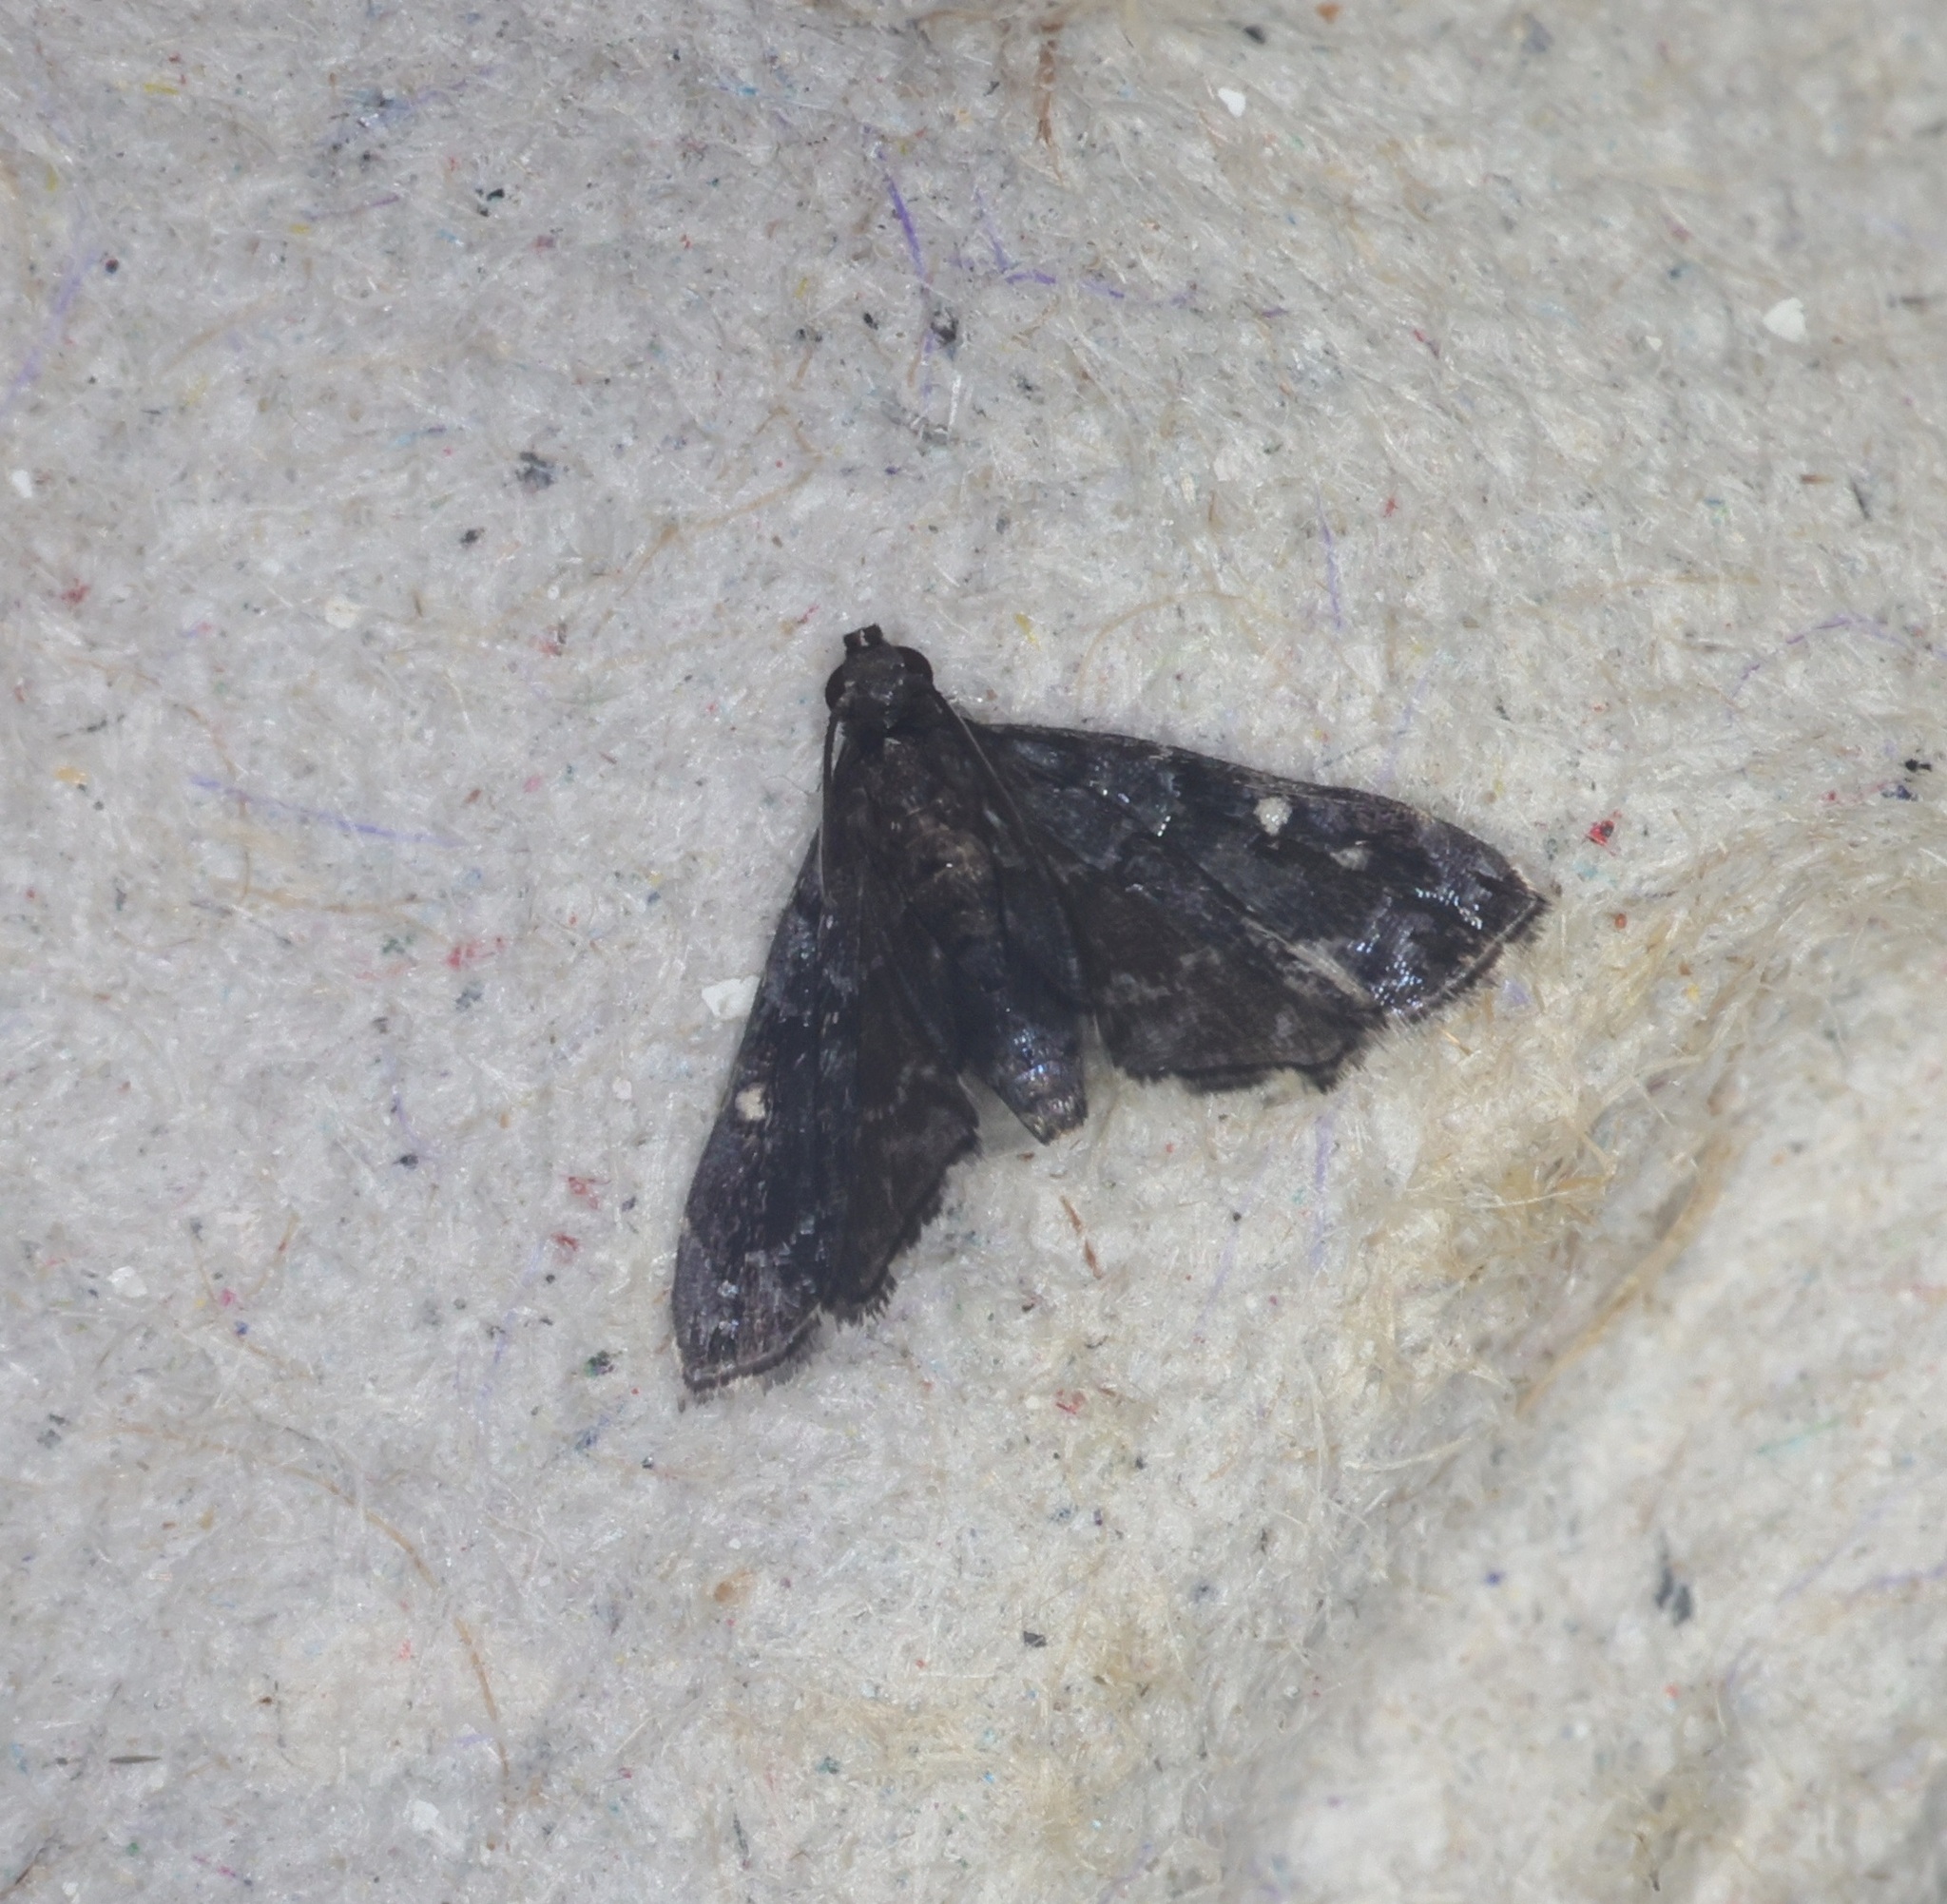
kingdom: Animalia
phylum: Arthropoda
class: Insecta
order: Lepidoptera
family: Pyralidae
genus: Drosophantis
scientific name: Drosophantis caeruleata
